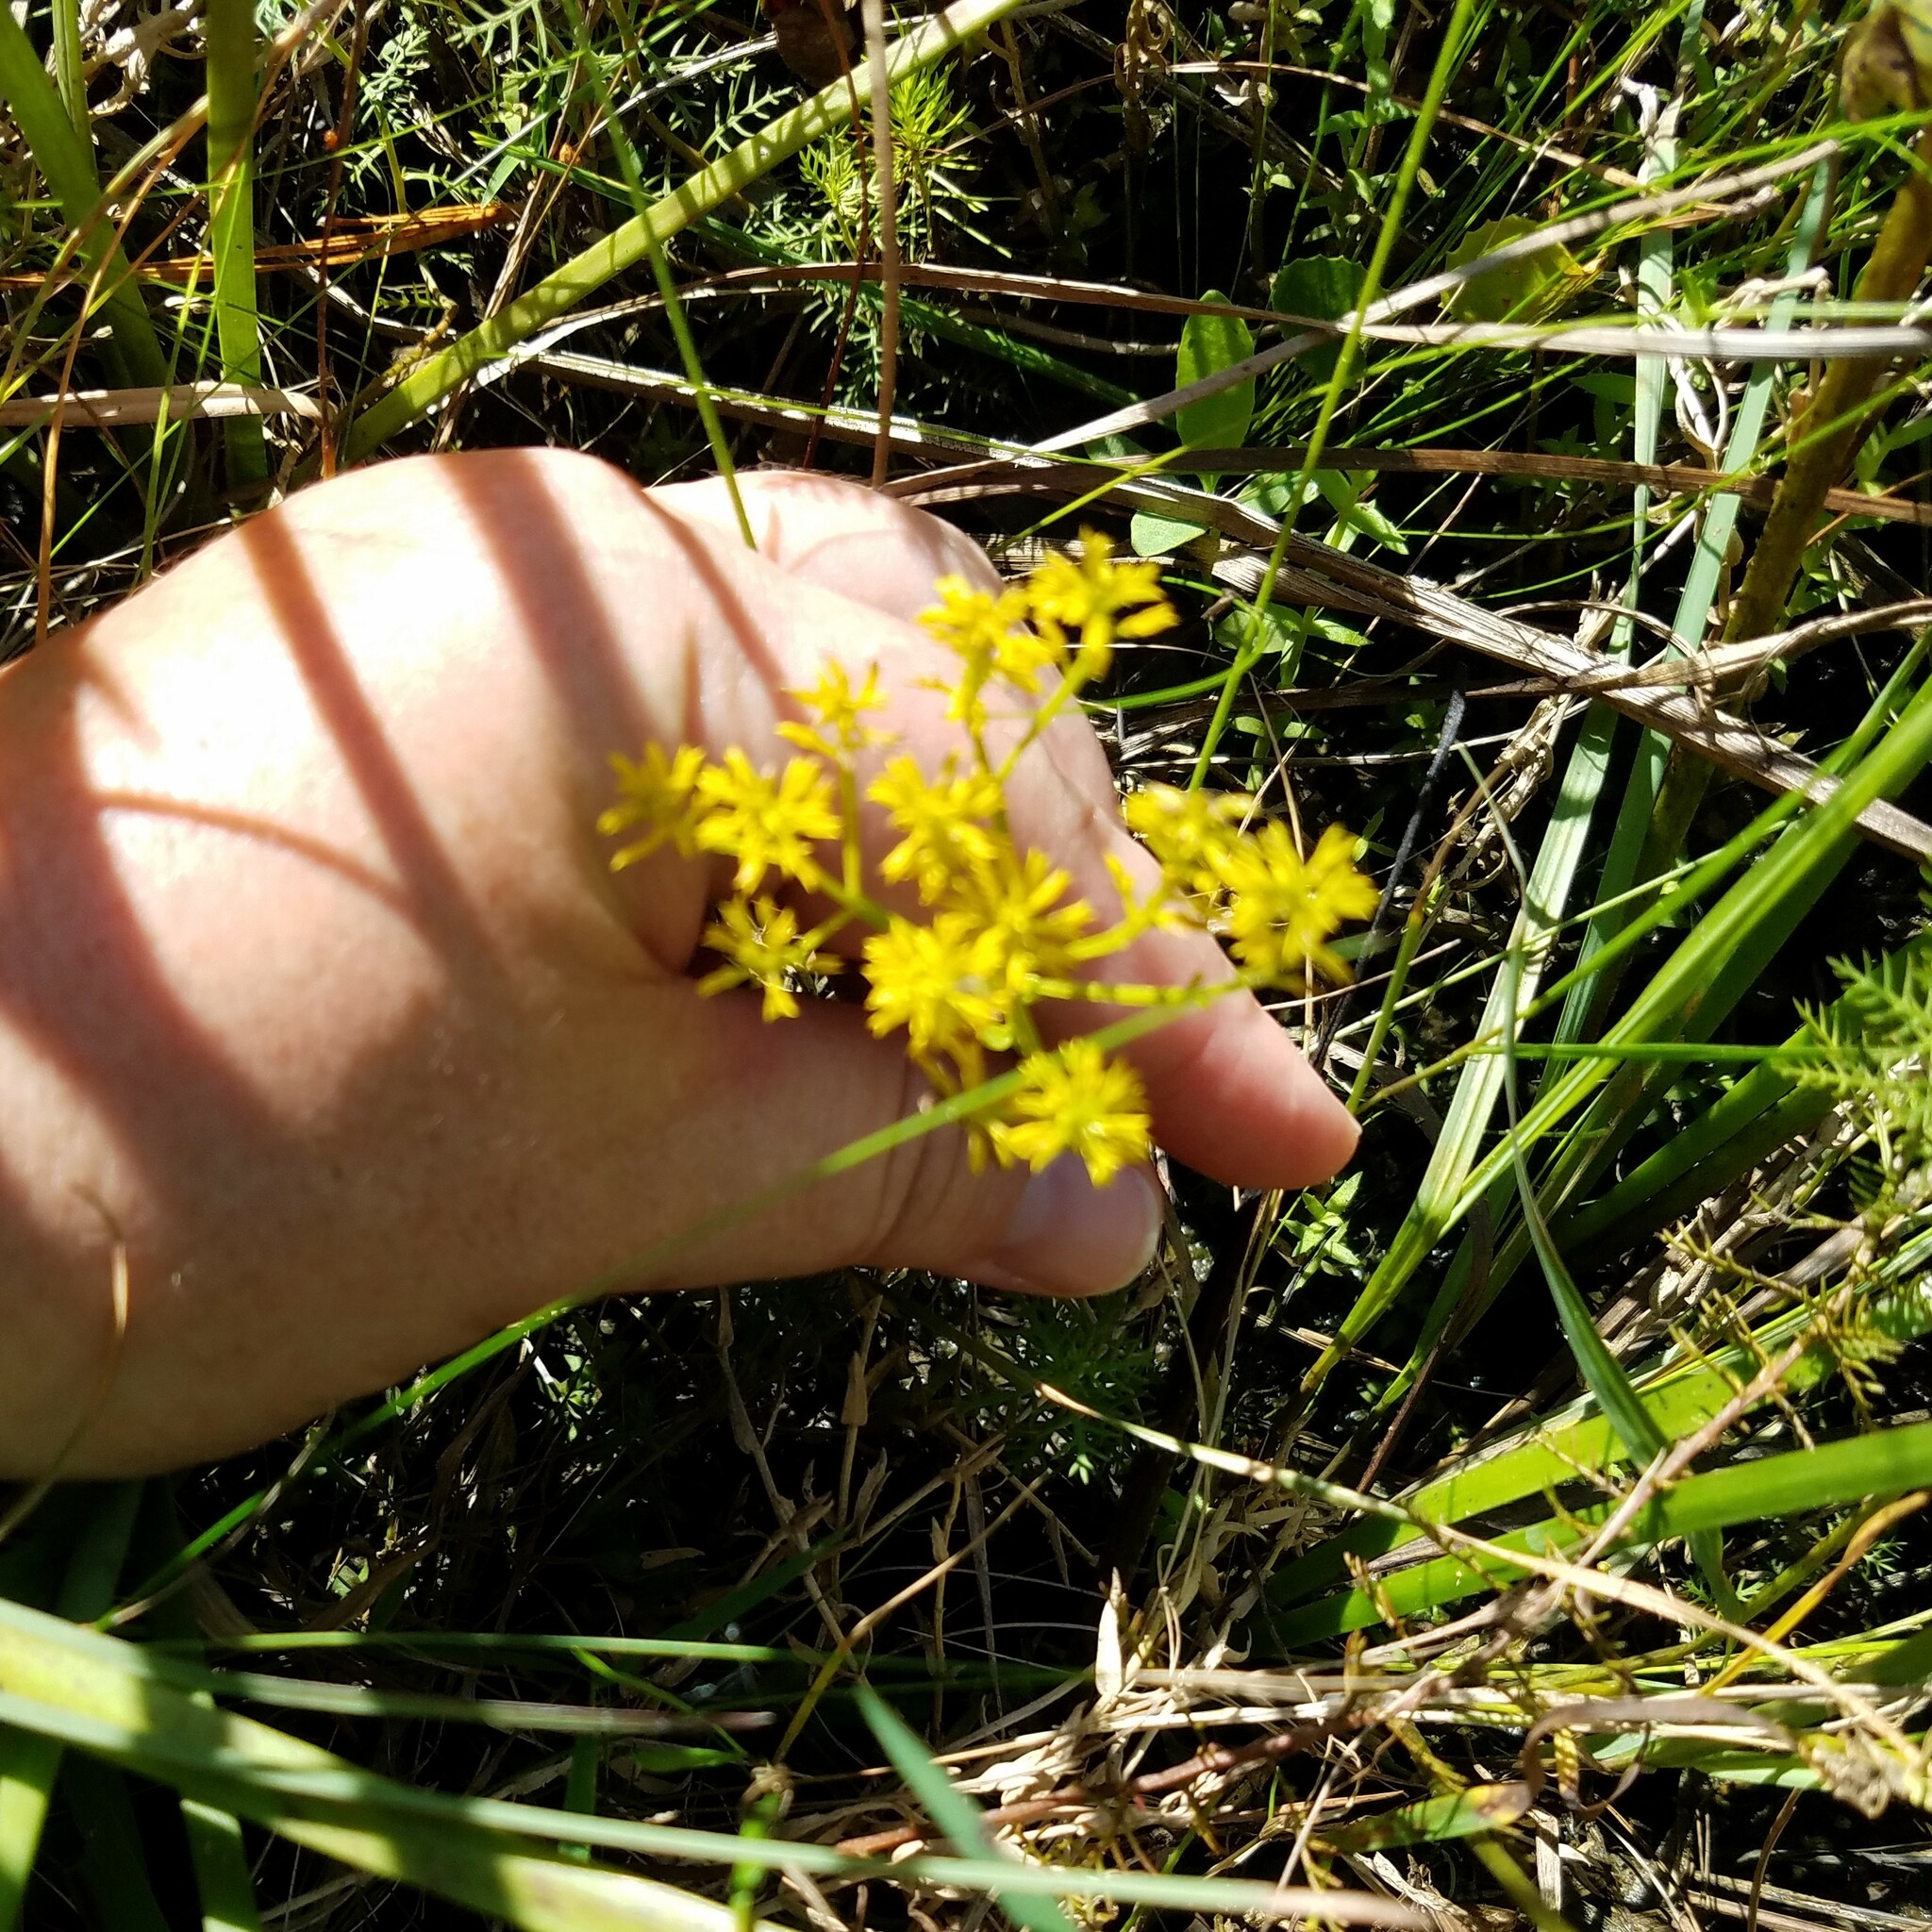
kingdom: Plantae
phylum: Tracheophyta
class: Magnoliopsida
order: Fabales
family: Polygalaceae
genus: Polygala
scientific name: Polygala ramosa
